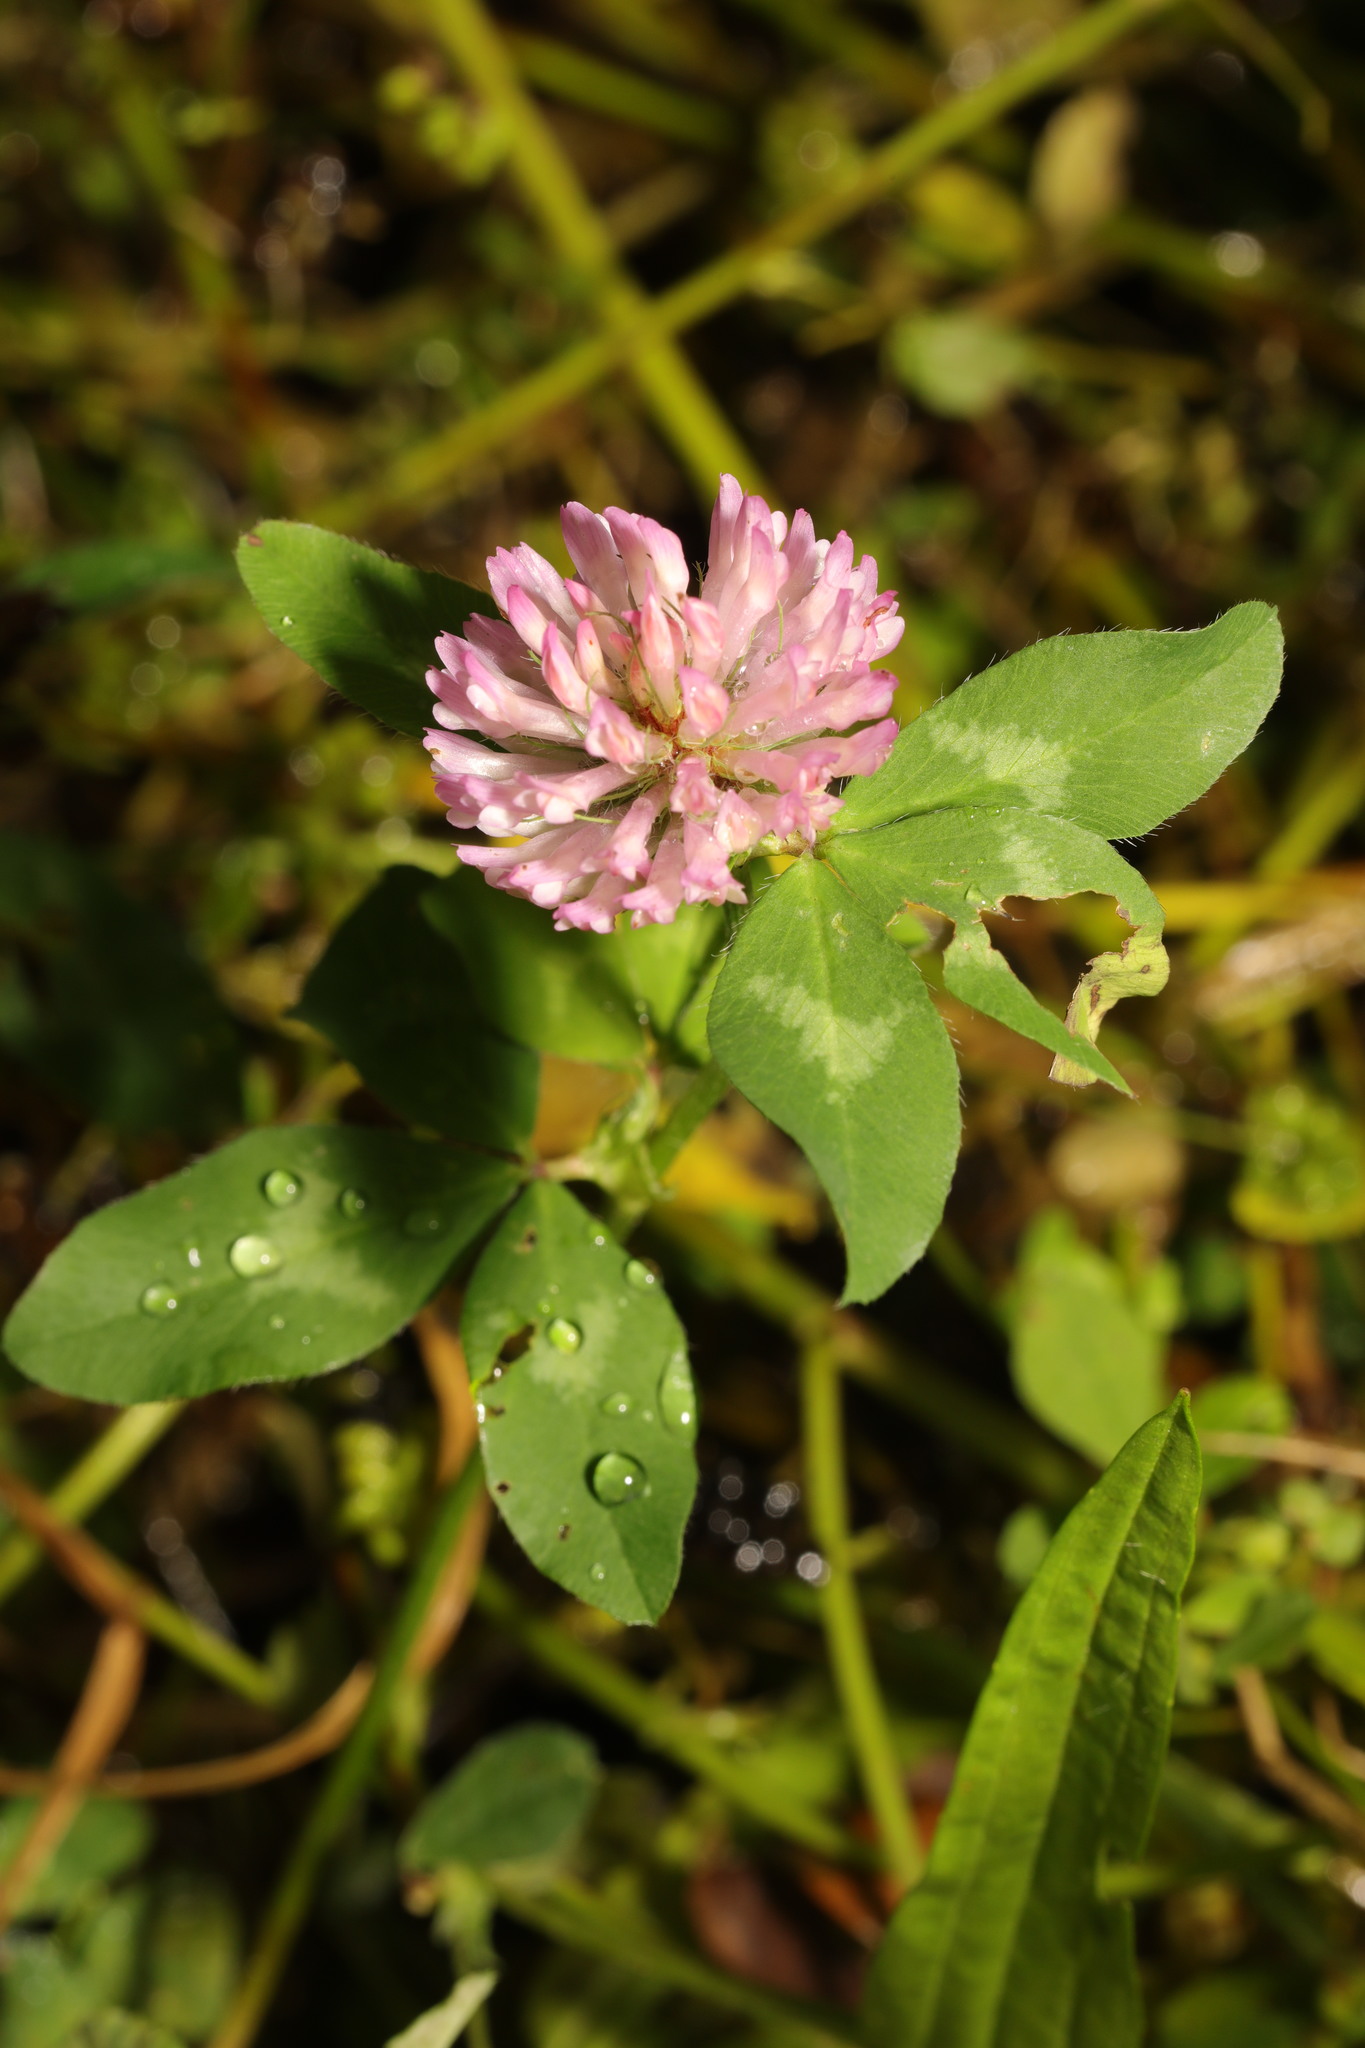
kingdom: Plantae
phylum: Tracheophyta
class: Magnoliopsida
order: Fabales
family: Fabaceae
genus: Trifolium
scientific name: Trifolium pratense
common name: Red clover
